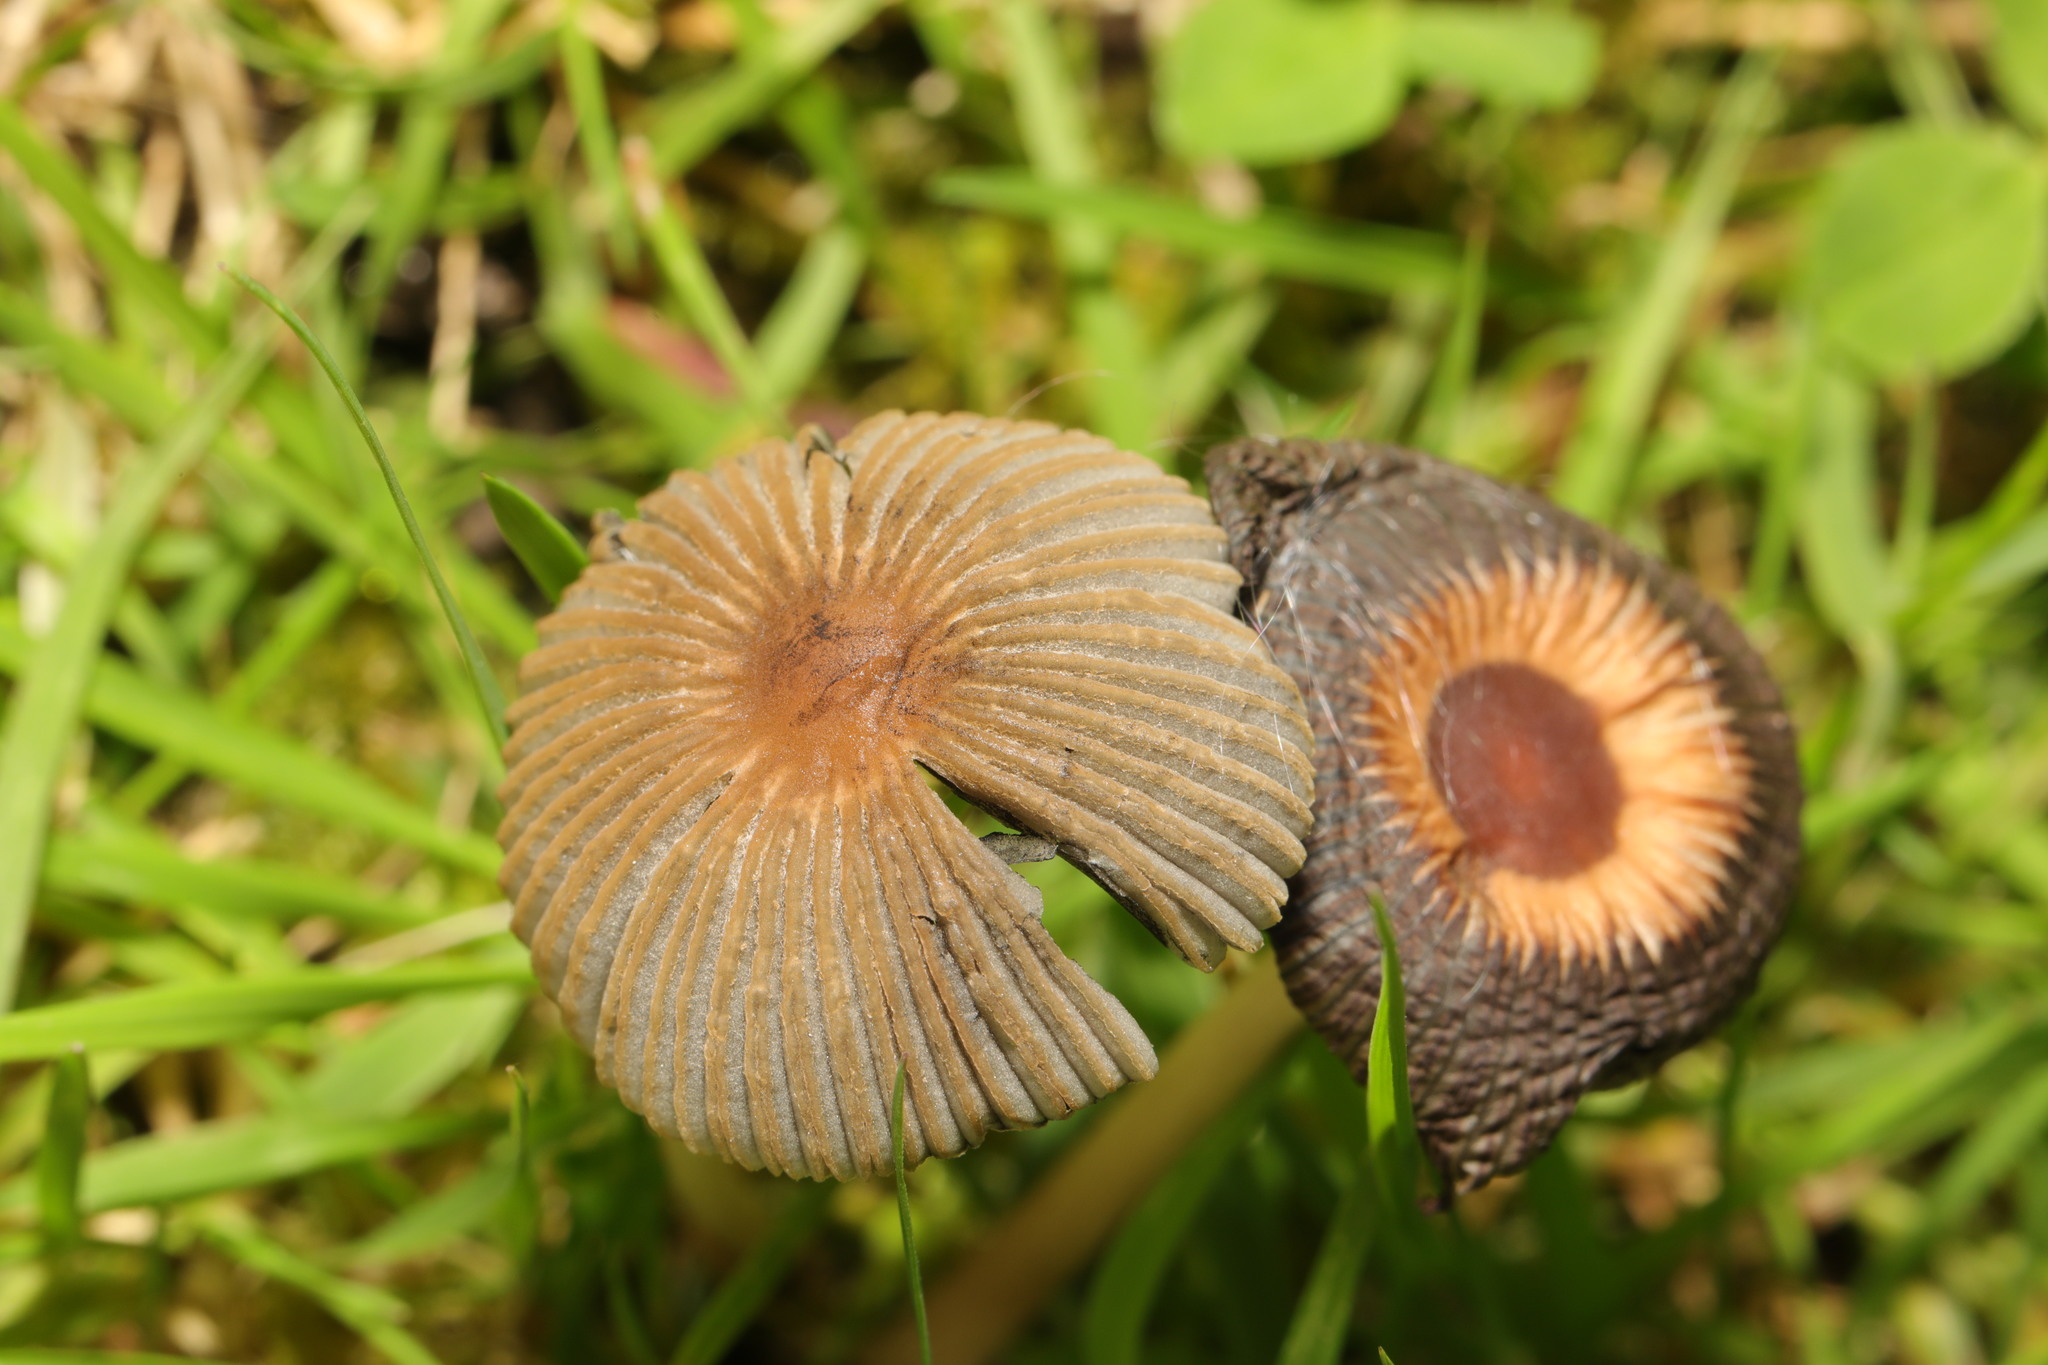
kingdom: Fungi
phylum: Basidiomycota
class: Agaricomycetes
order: Agaricales
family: Psathyrellaceae
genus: Parasola
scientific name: Parasola
